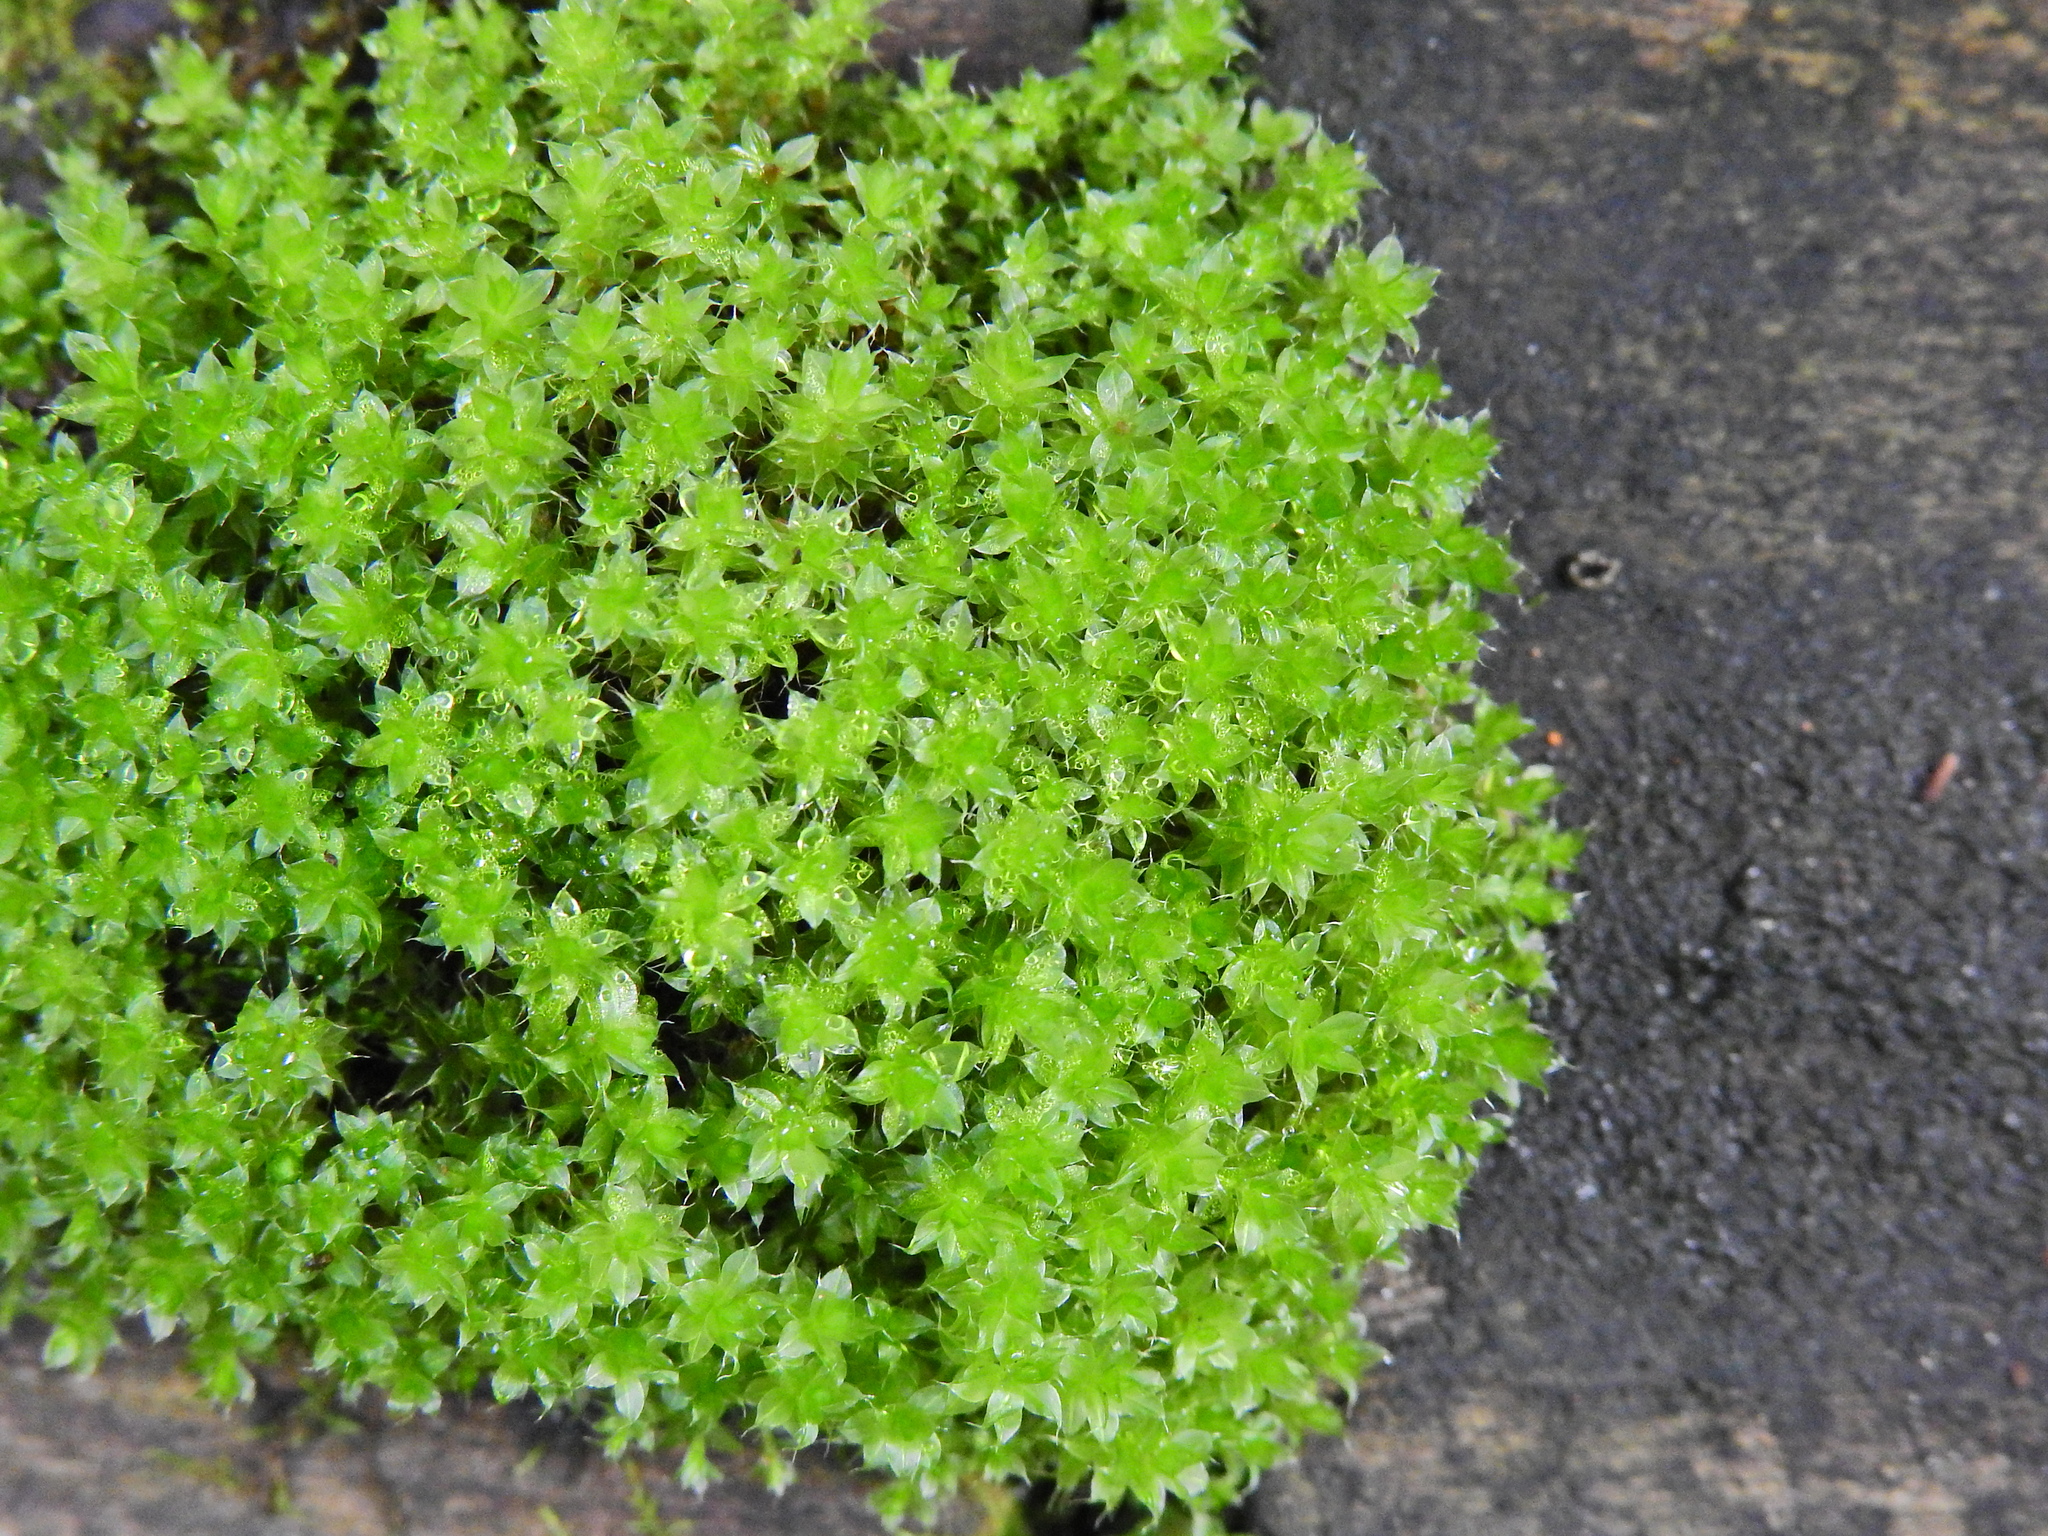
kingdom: Plantae
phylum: Bryophyta
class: Bryopsida
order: Bryales
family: Bryaceae
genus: Rosulabryum
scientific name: Rosulabryum capillare
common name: Capillary thread-moss
